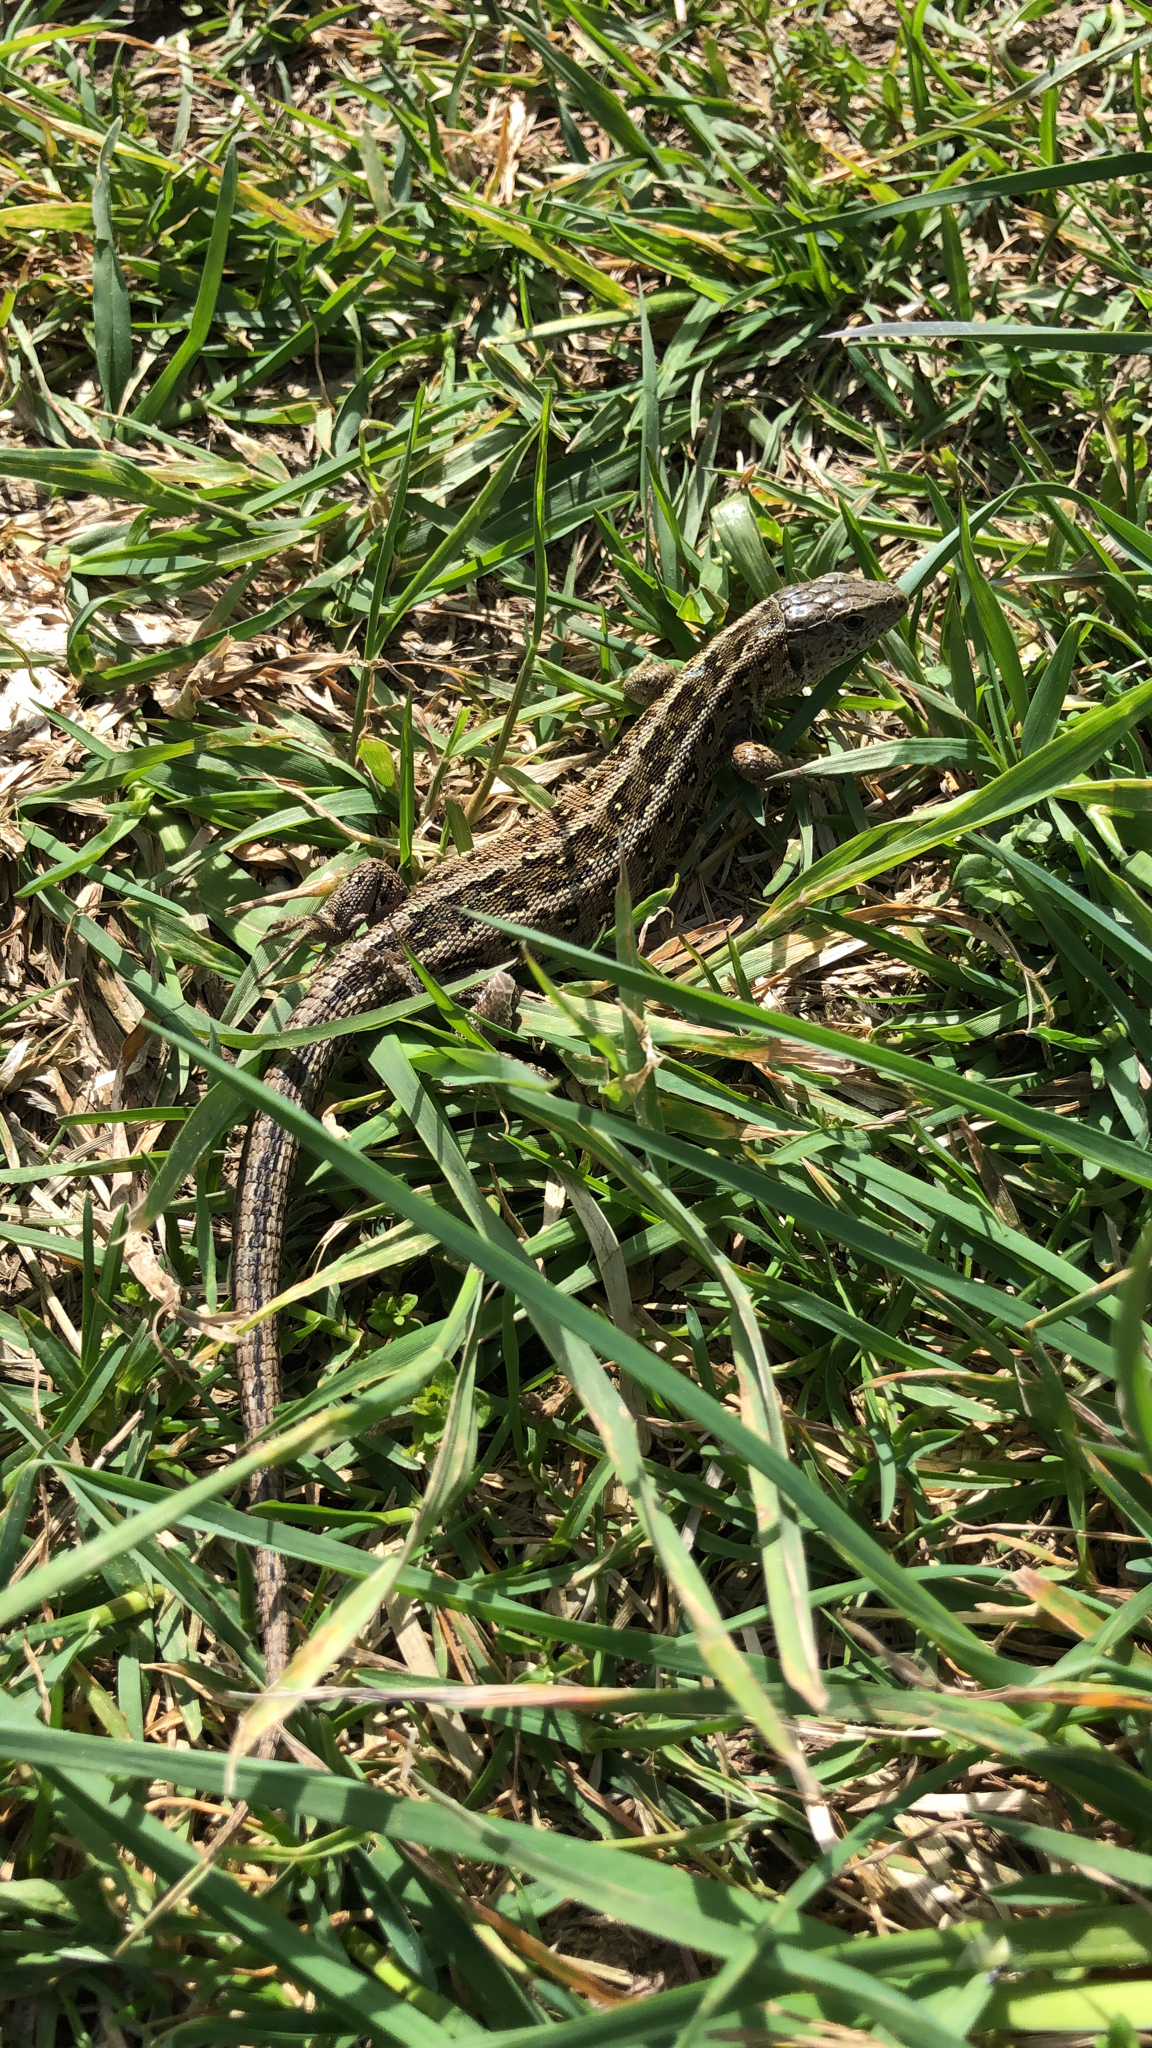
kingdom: Animalia
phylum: Chordata
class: Squamata
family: Lacertidae
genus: Lacerta
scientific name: Lacerta agilis
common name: Sand lizard
